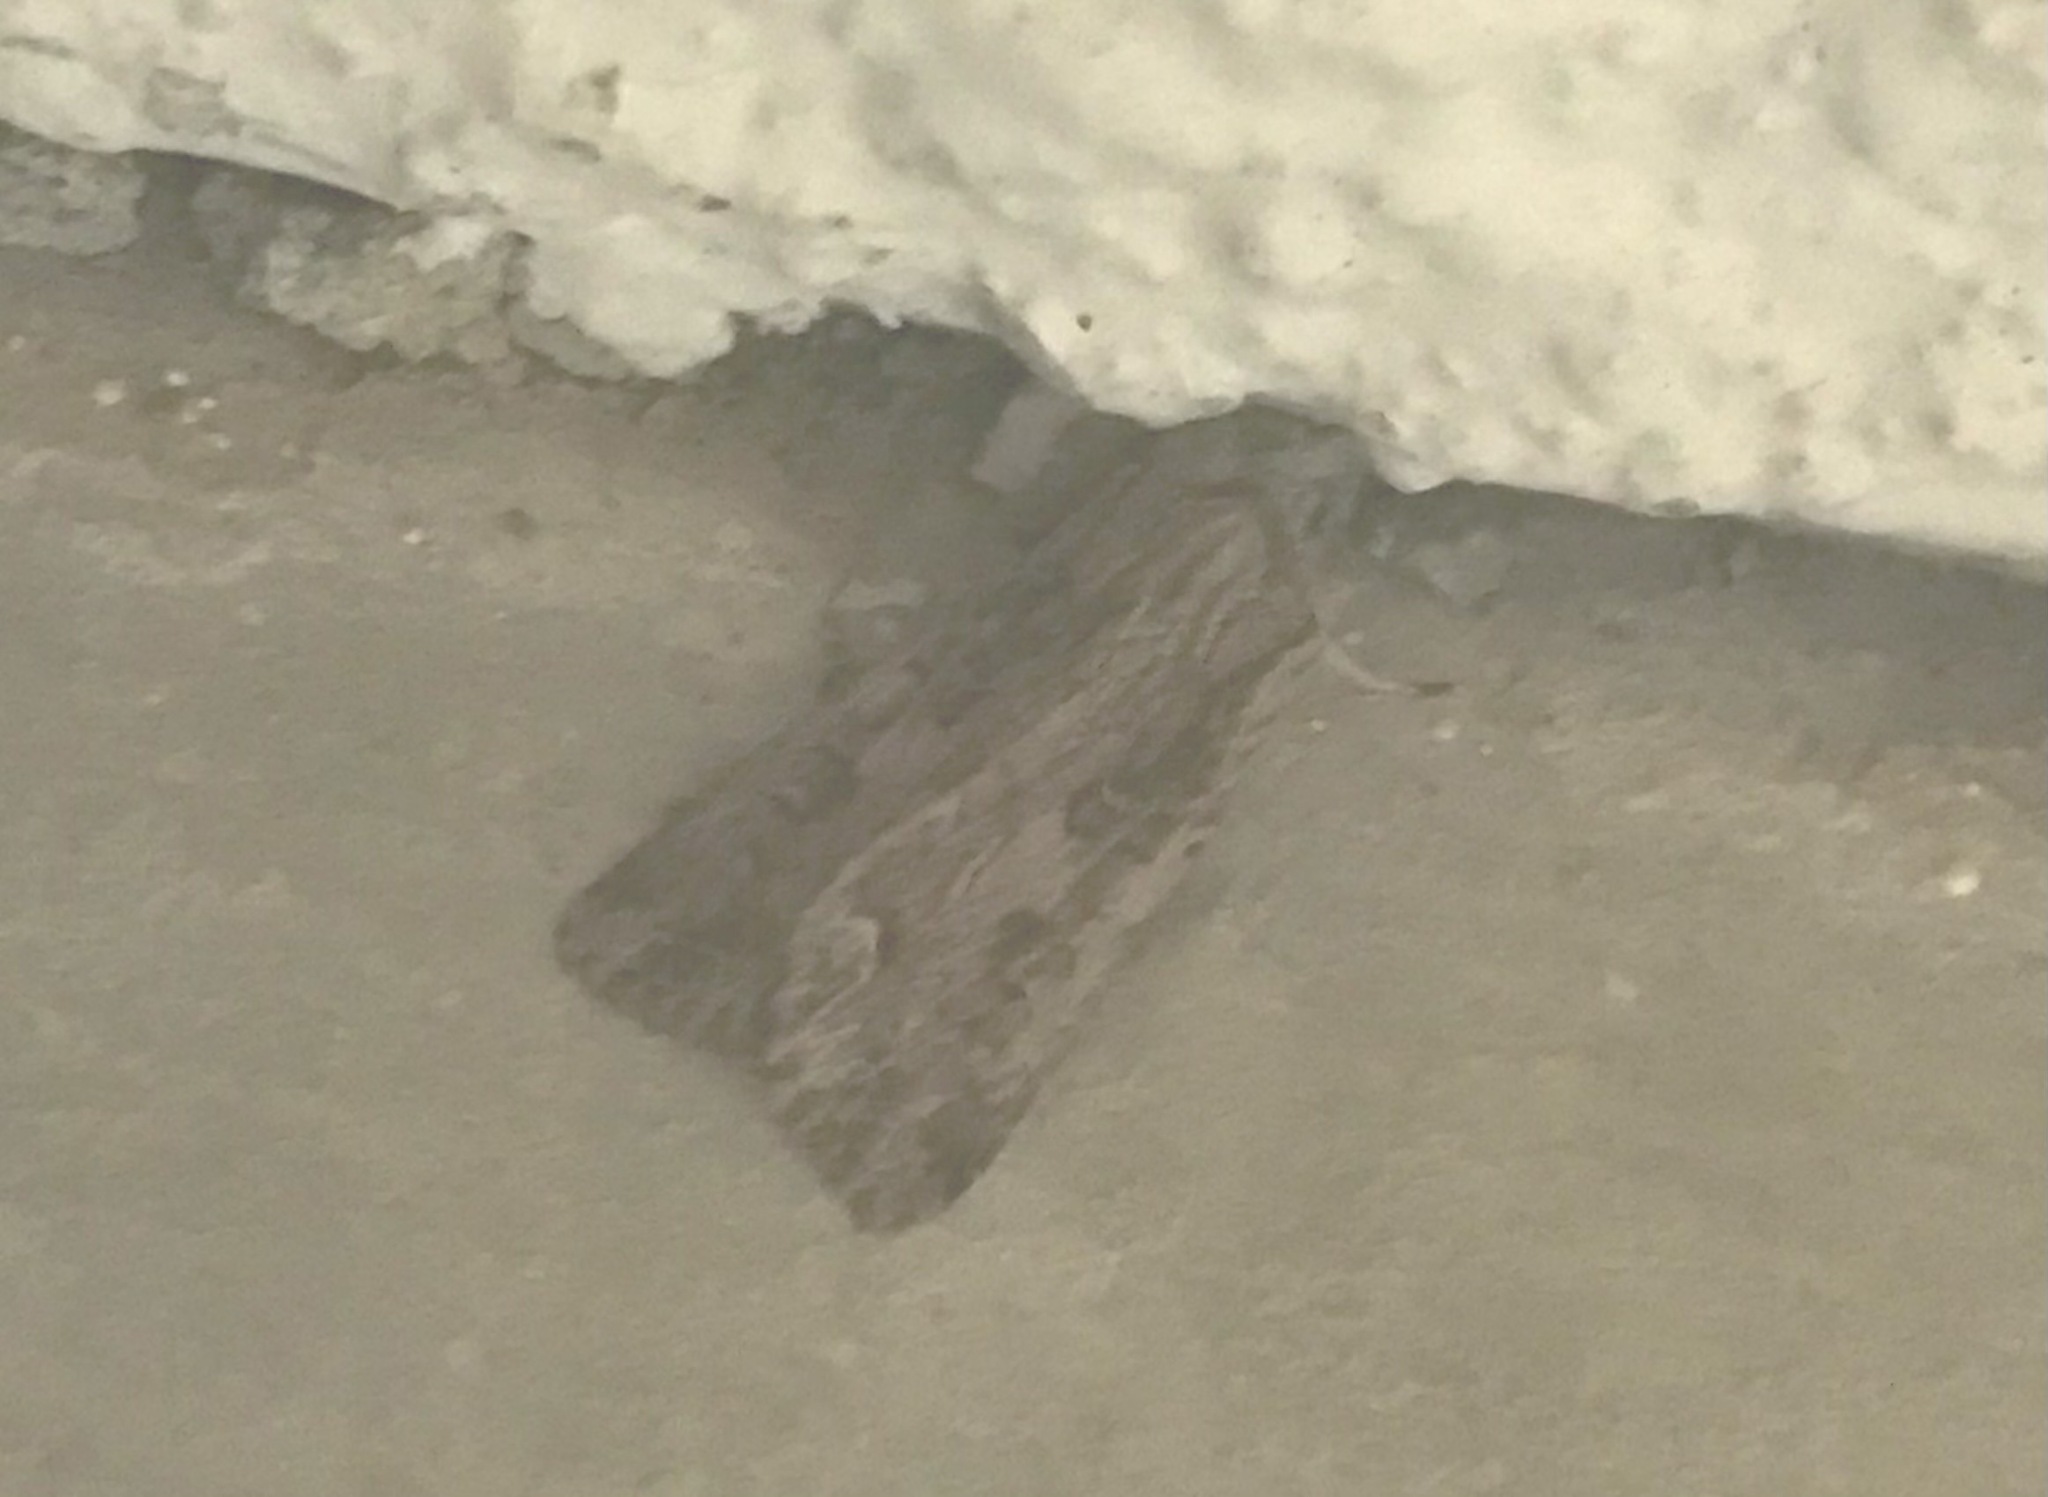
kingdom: Animalia
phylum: Arthropoda
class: Insecta
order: Lepidoptera
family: Noctuidae
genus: Ichneutica
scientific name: Ichneutica lignana
